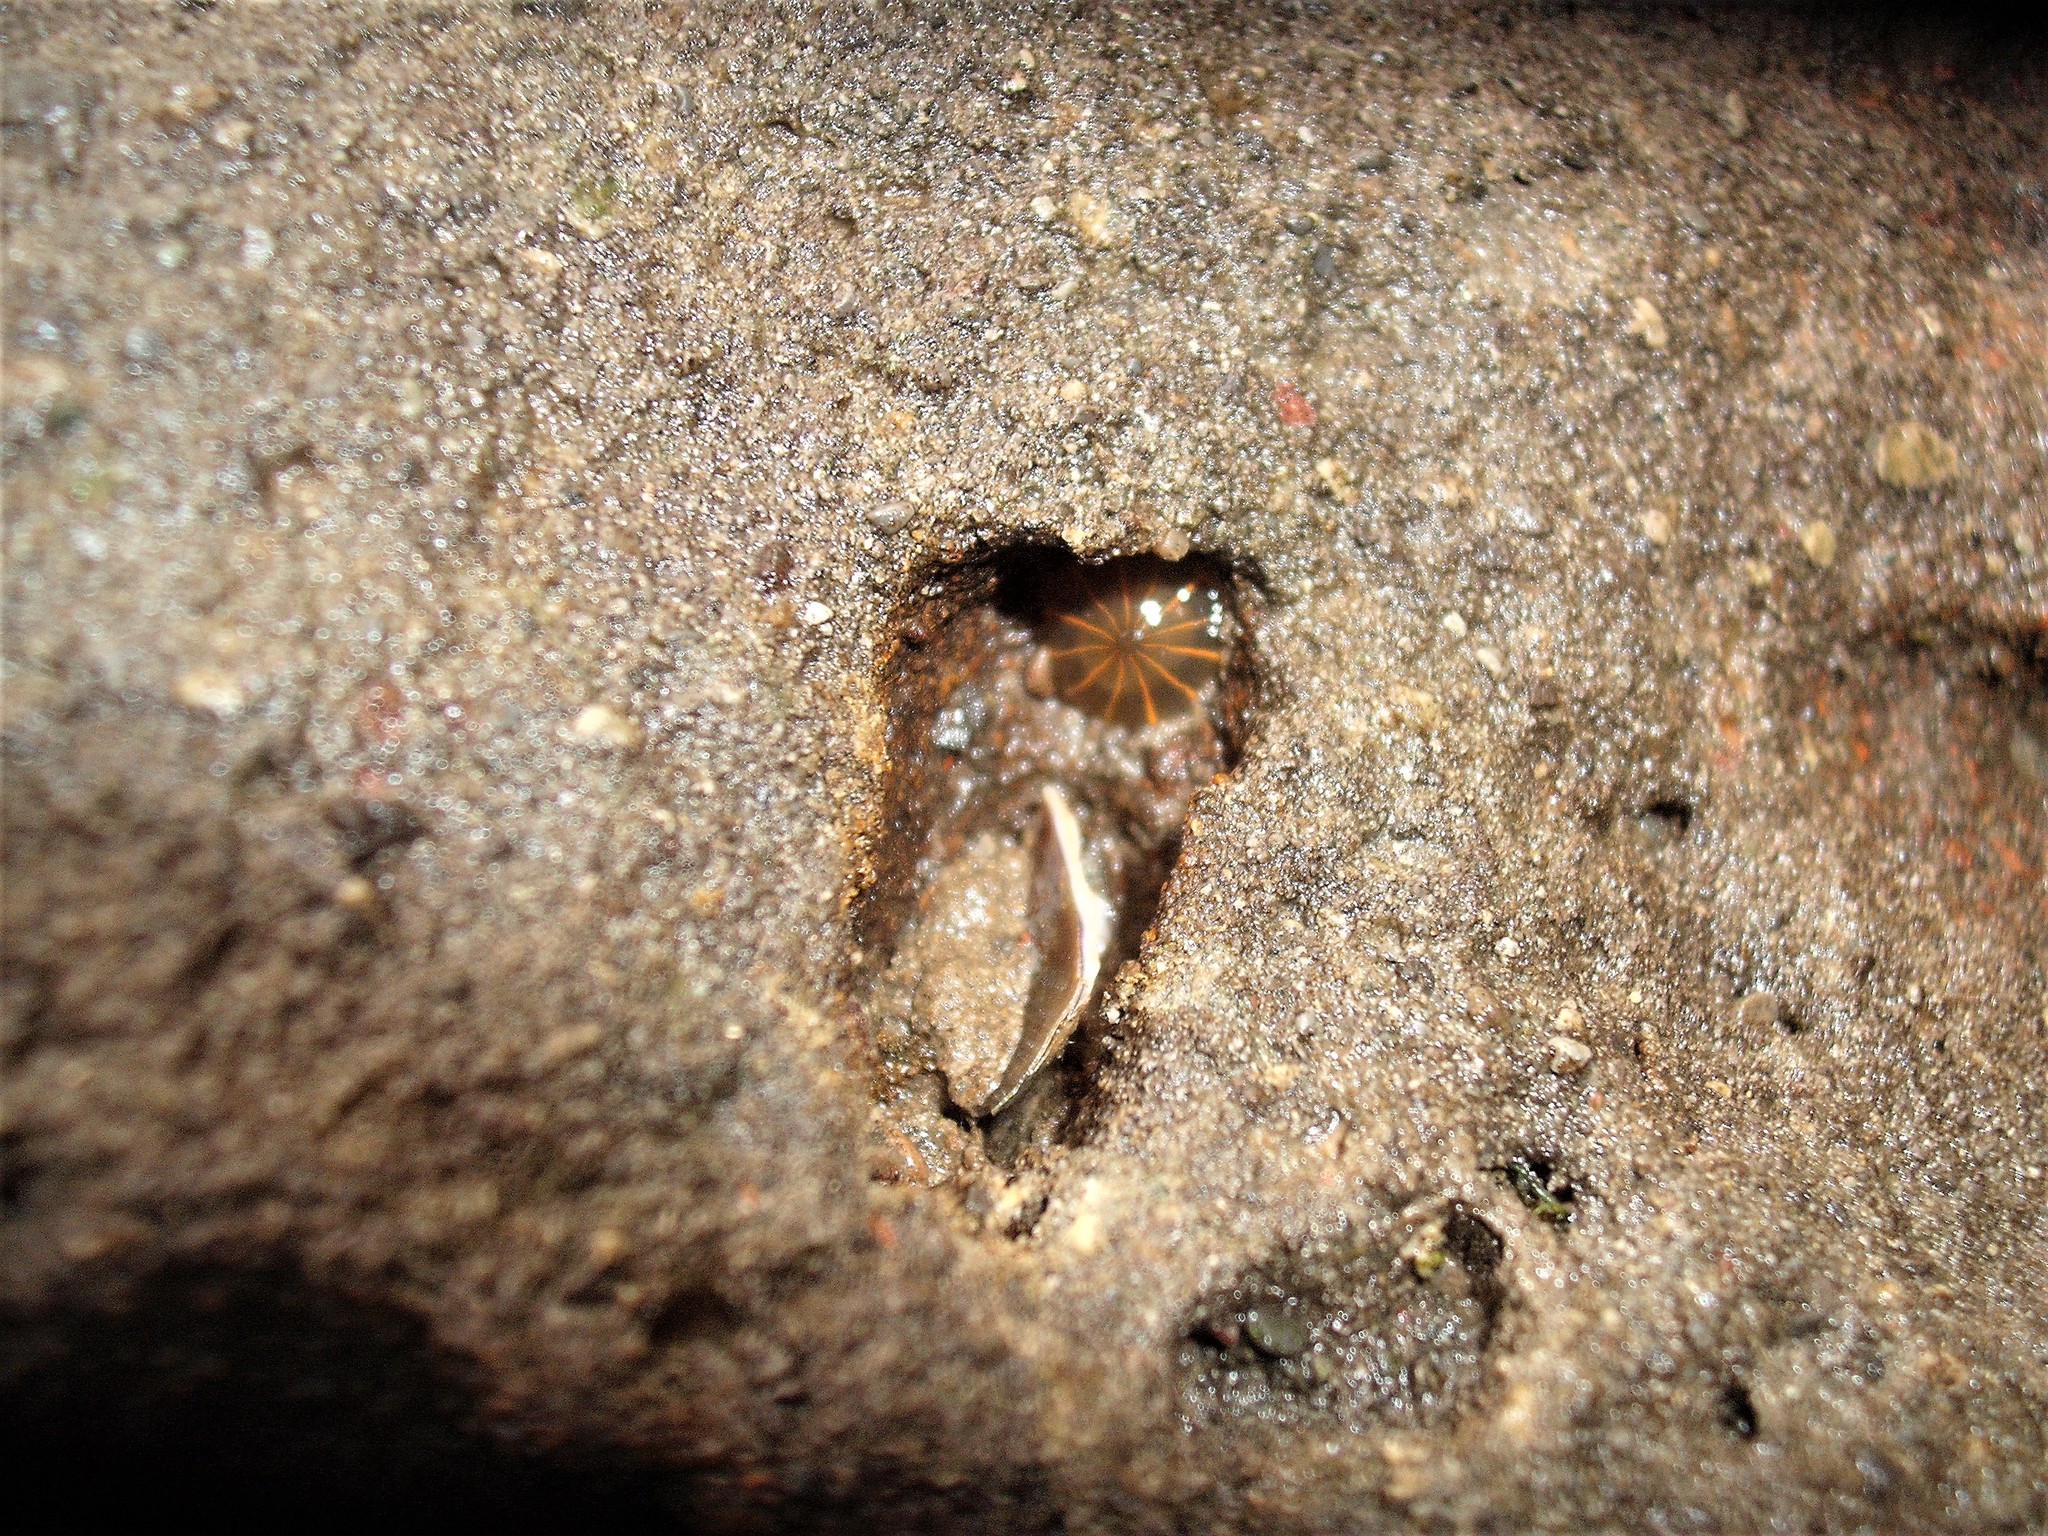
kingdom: Animalia
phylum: Cnidaria
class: Anthozoa
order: Actiniaria
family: Diadumenidae
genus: Diadumene
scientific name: Diadumene lineata
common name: Orange-striped anemone
